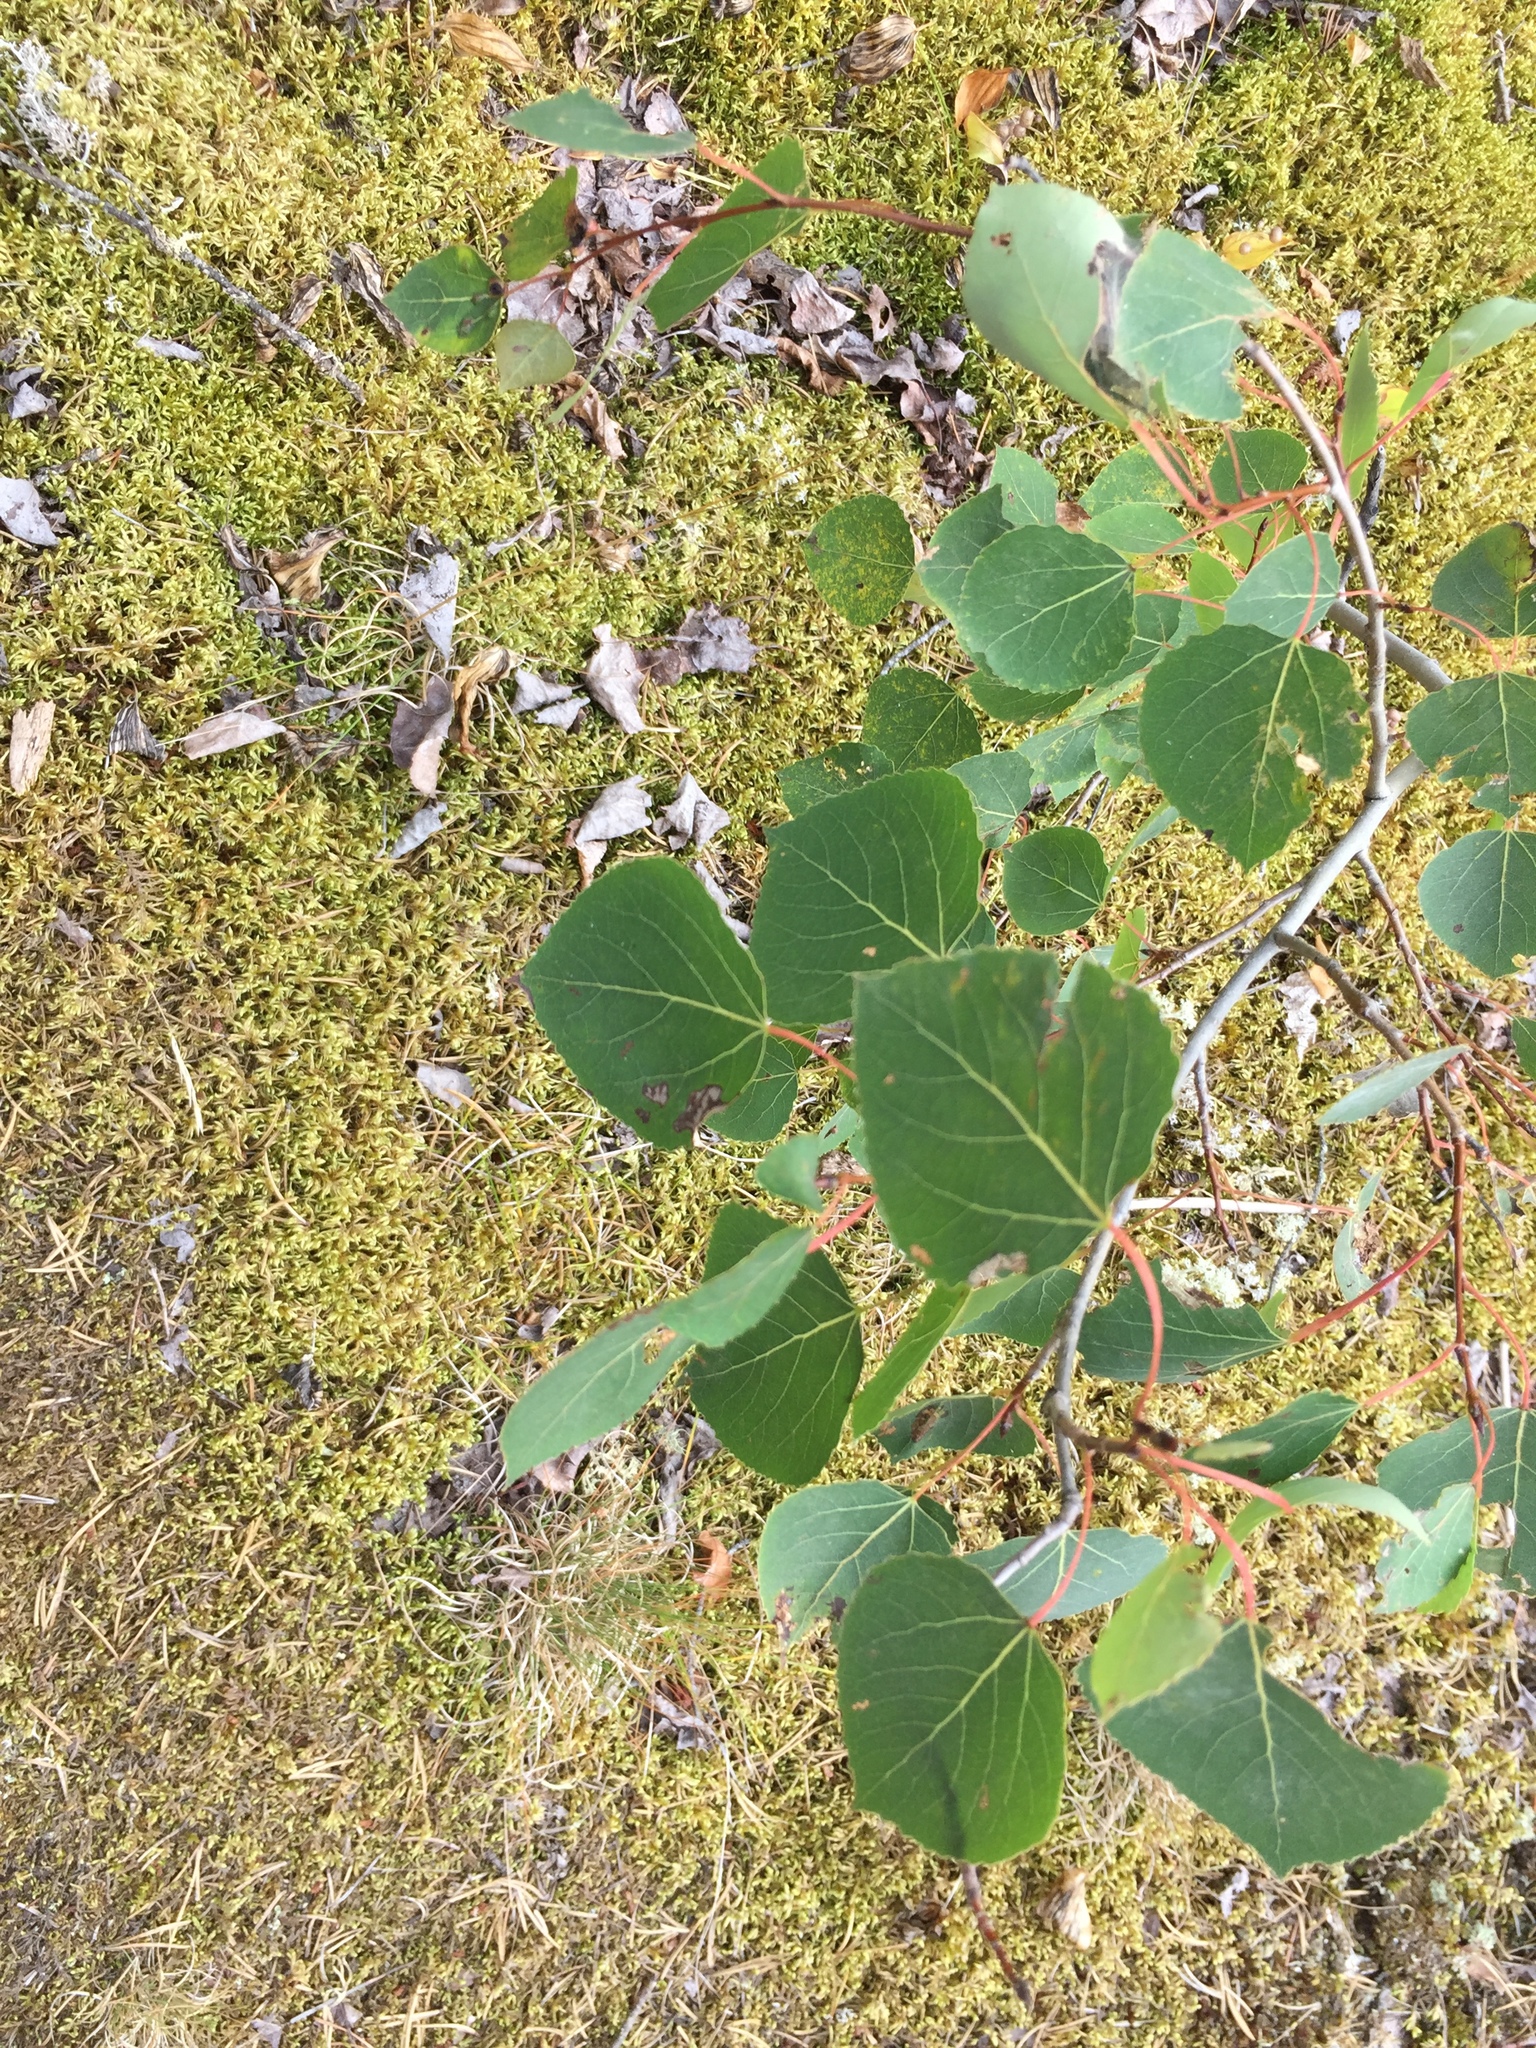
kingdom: Plantae
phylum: Tracheophyta
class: Magnoliopsida
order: Malpighiales
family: Salicaceae
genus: Populus
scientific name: Populus tremuloides
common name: Quaking aspen
